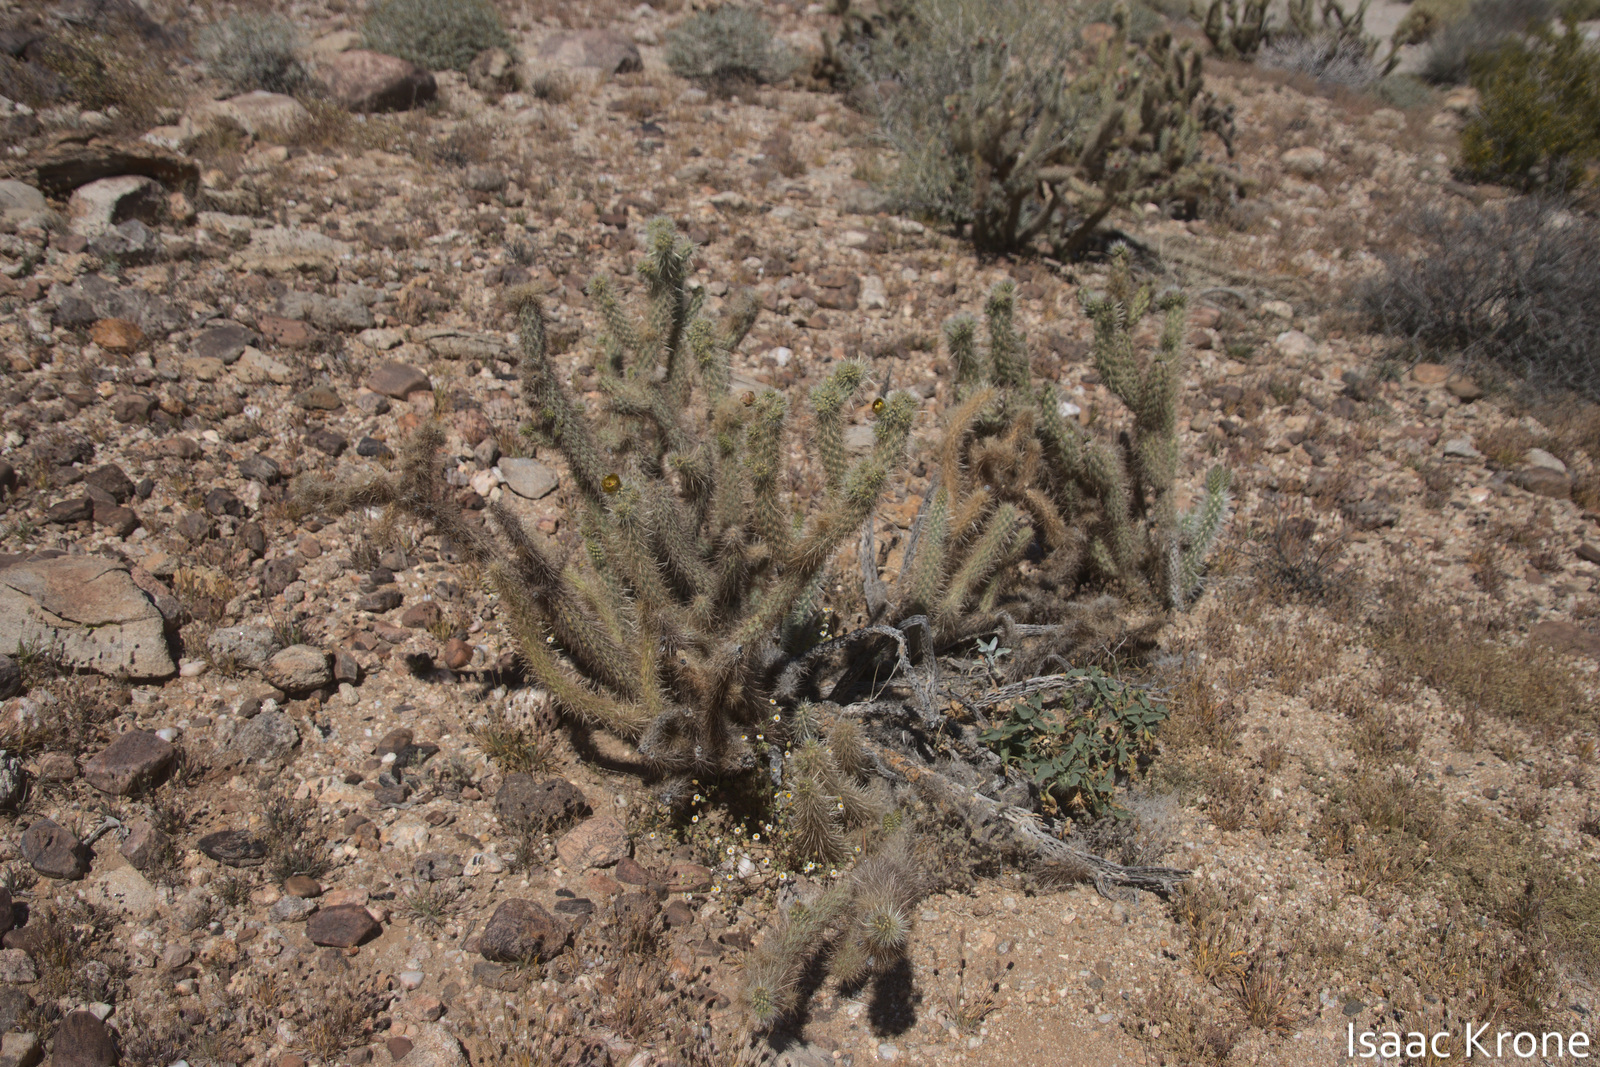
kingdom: Plantae
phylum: Tracheophyta
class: Magnoliopsida
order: Caryophyllales
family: Cactaceae
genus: Cylindropuntia
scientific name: Cylindropuntia wolfii
